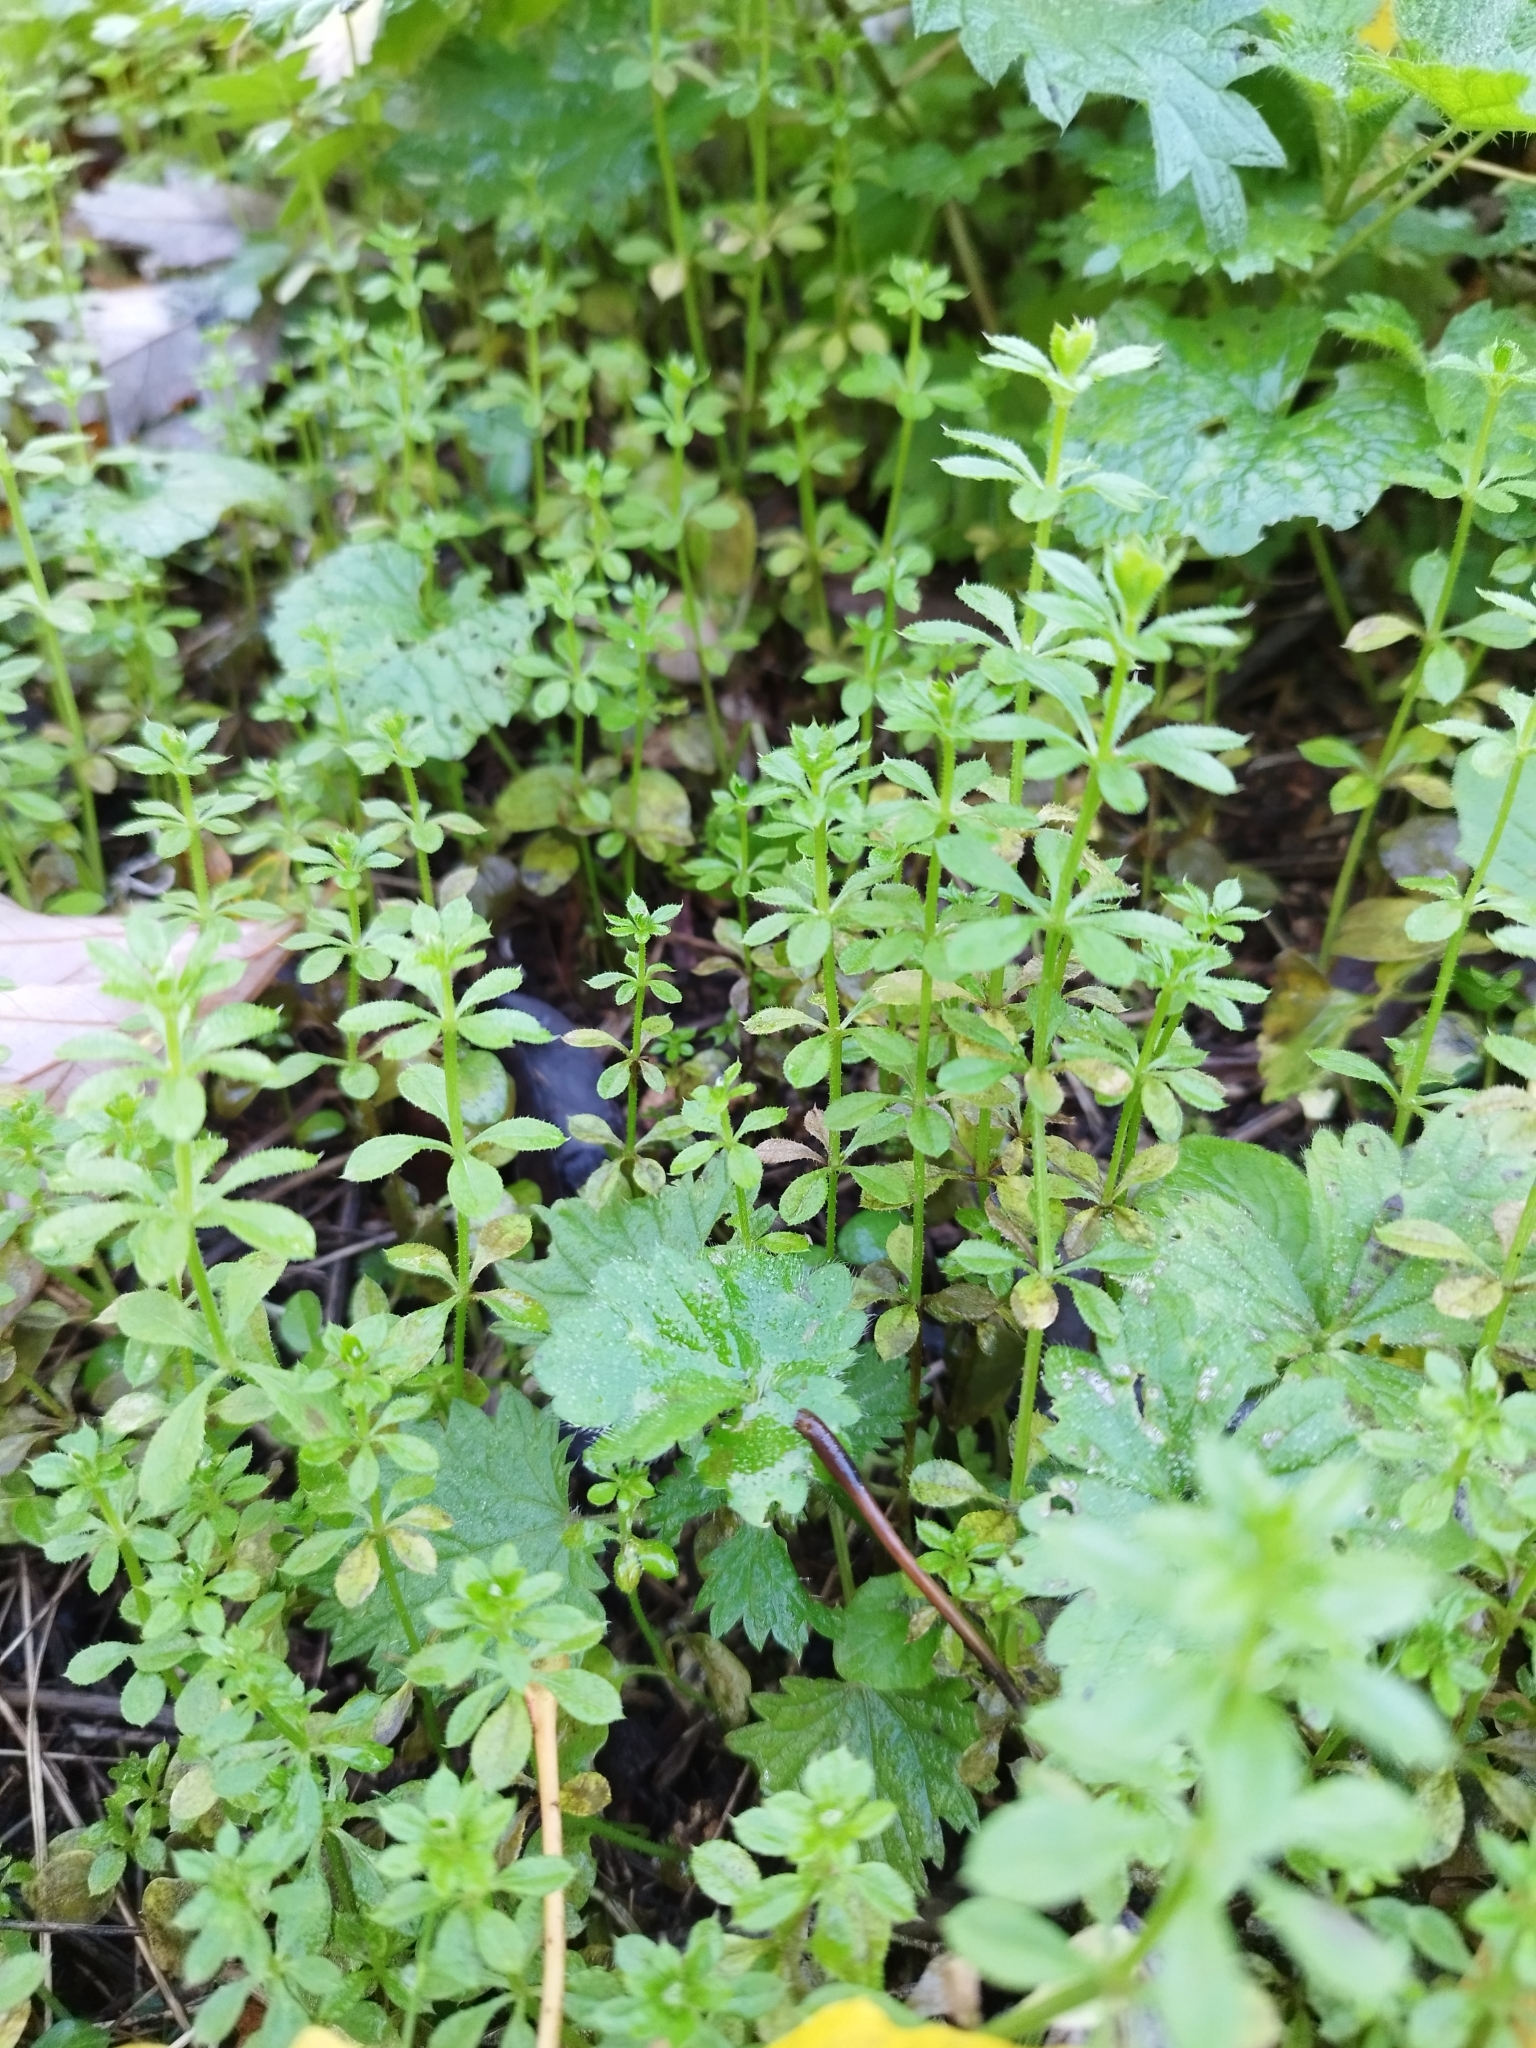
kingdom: Plantae
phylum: Tracheophyta
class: Magnoliopsida
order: Gentianales
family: Rubiaceae
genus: Galium
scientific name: Galium aparine
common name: Cleavers
